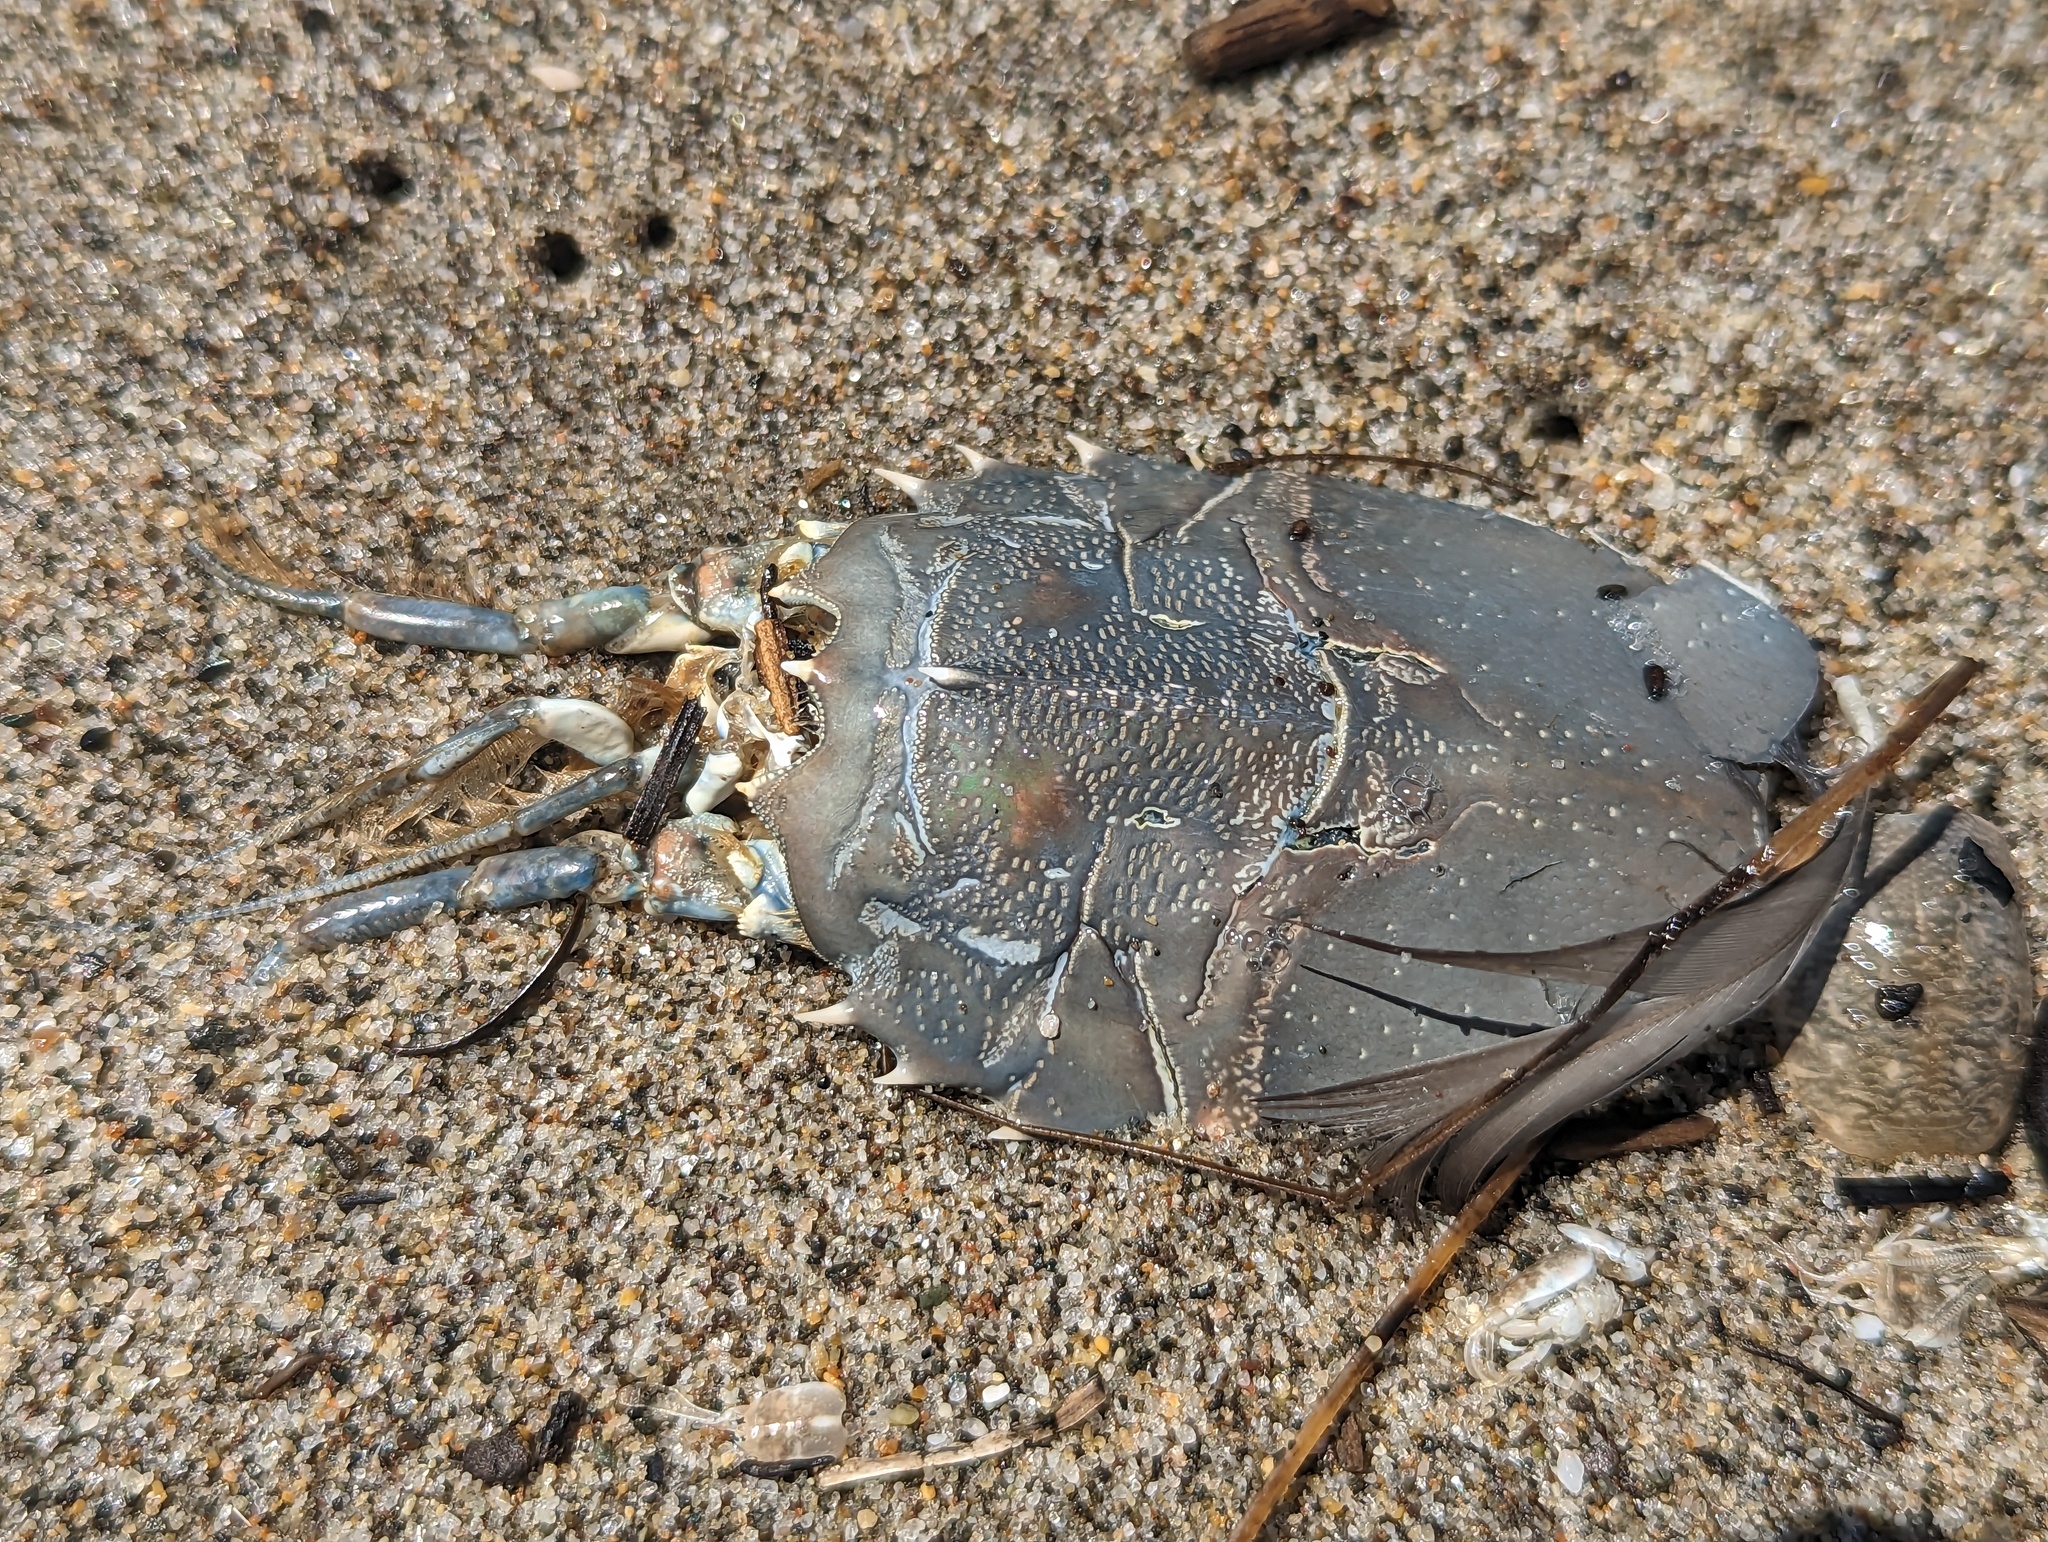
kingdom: Animalia
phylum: Arthropoda
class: Malacostraca
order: Decapoda
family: Blepharipodidae
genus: Blepharipoda
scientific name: Blepharipoda occidentalis
